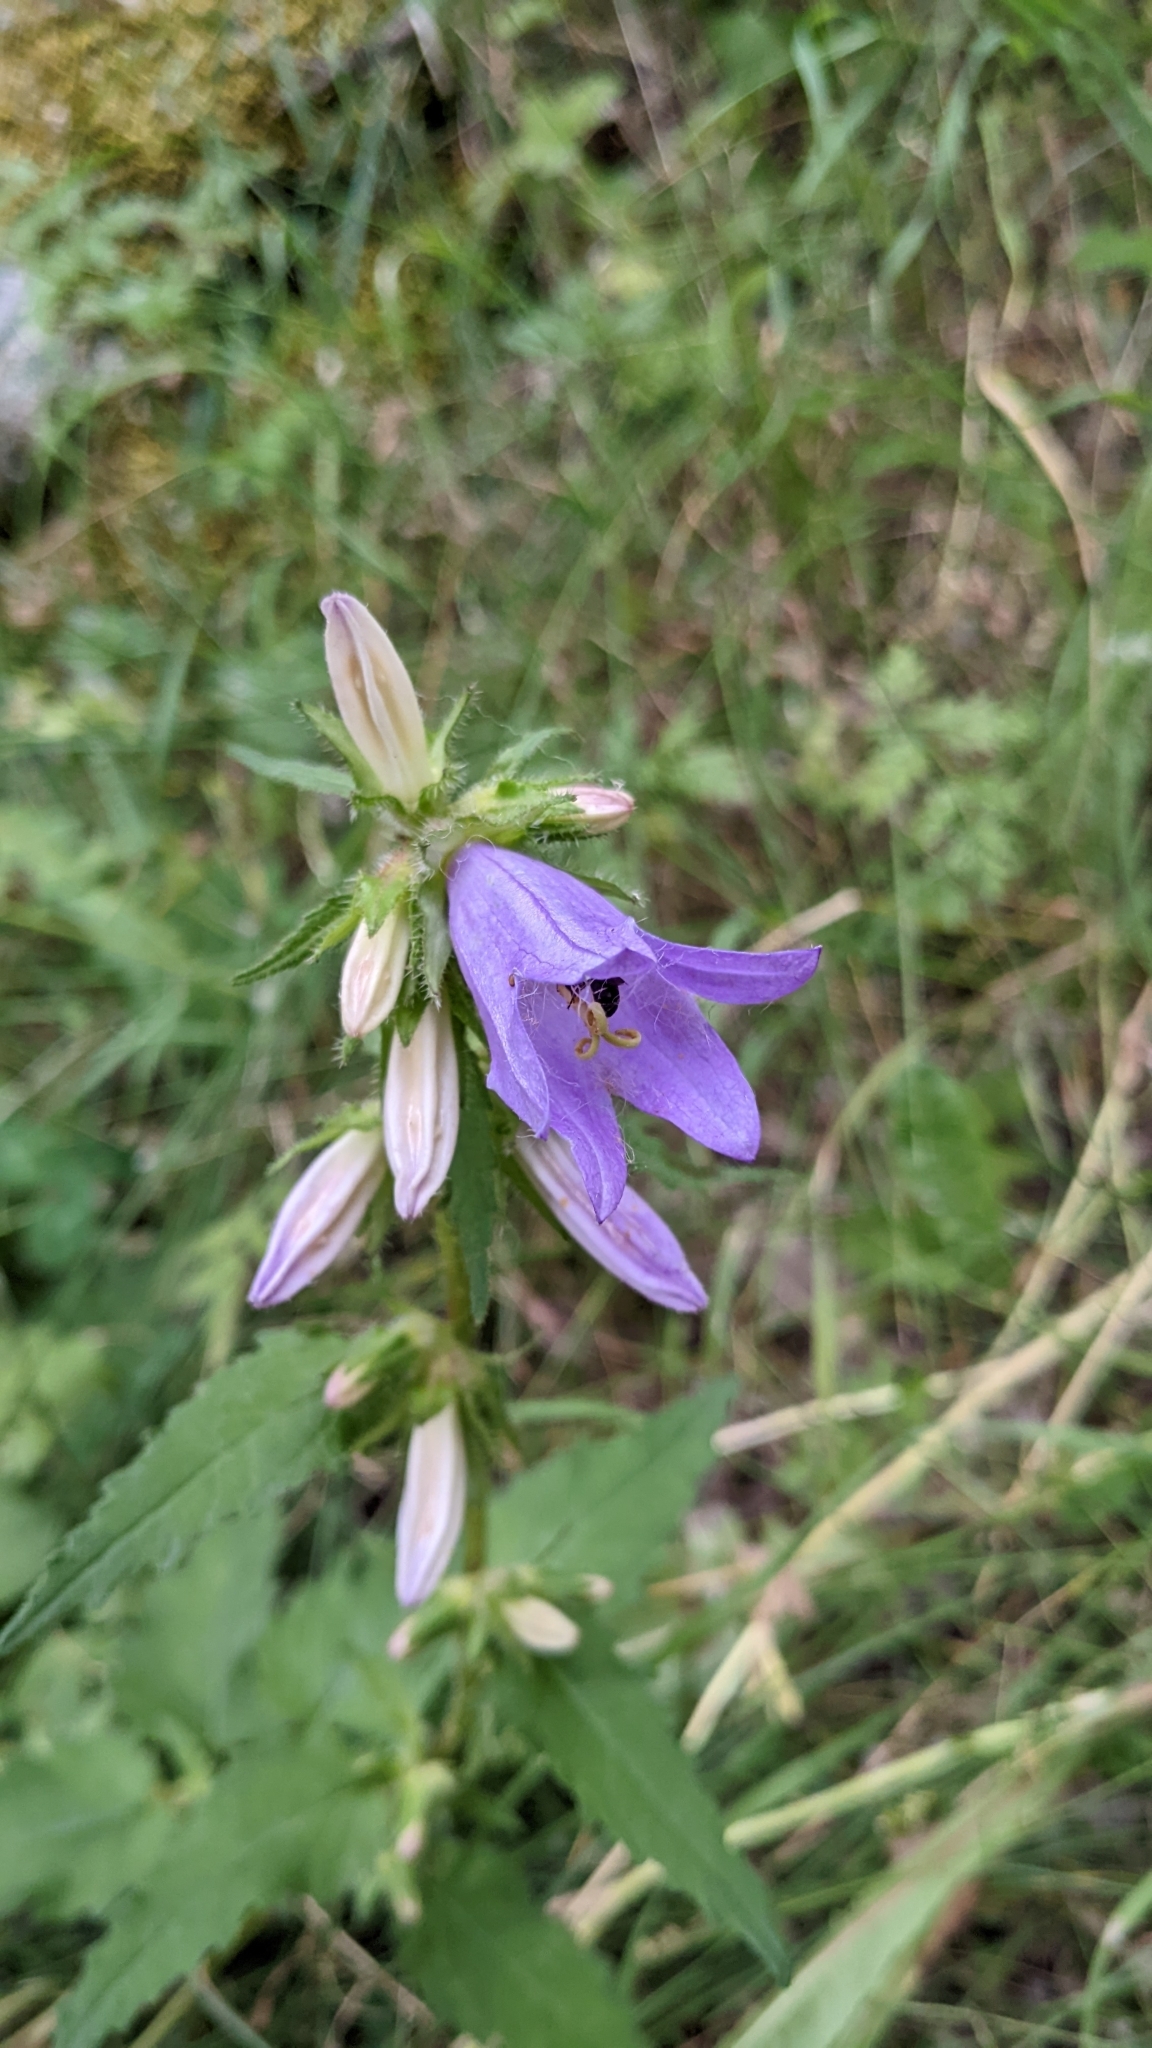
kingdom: Plantae
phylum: Tracheophyta
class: Magnoliopsida
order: Asterales
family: Campanulaceae
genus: Campanula
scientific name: Campanula trachelium
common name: Nettle-leaved bellflower
